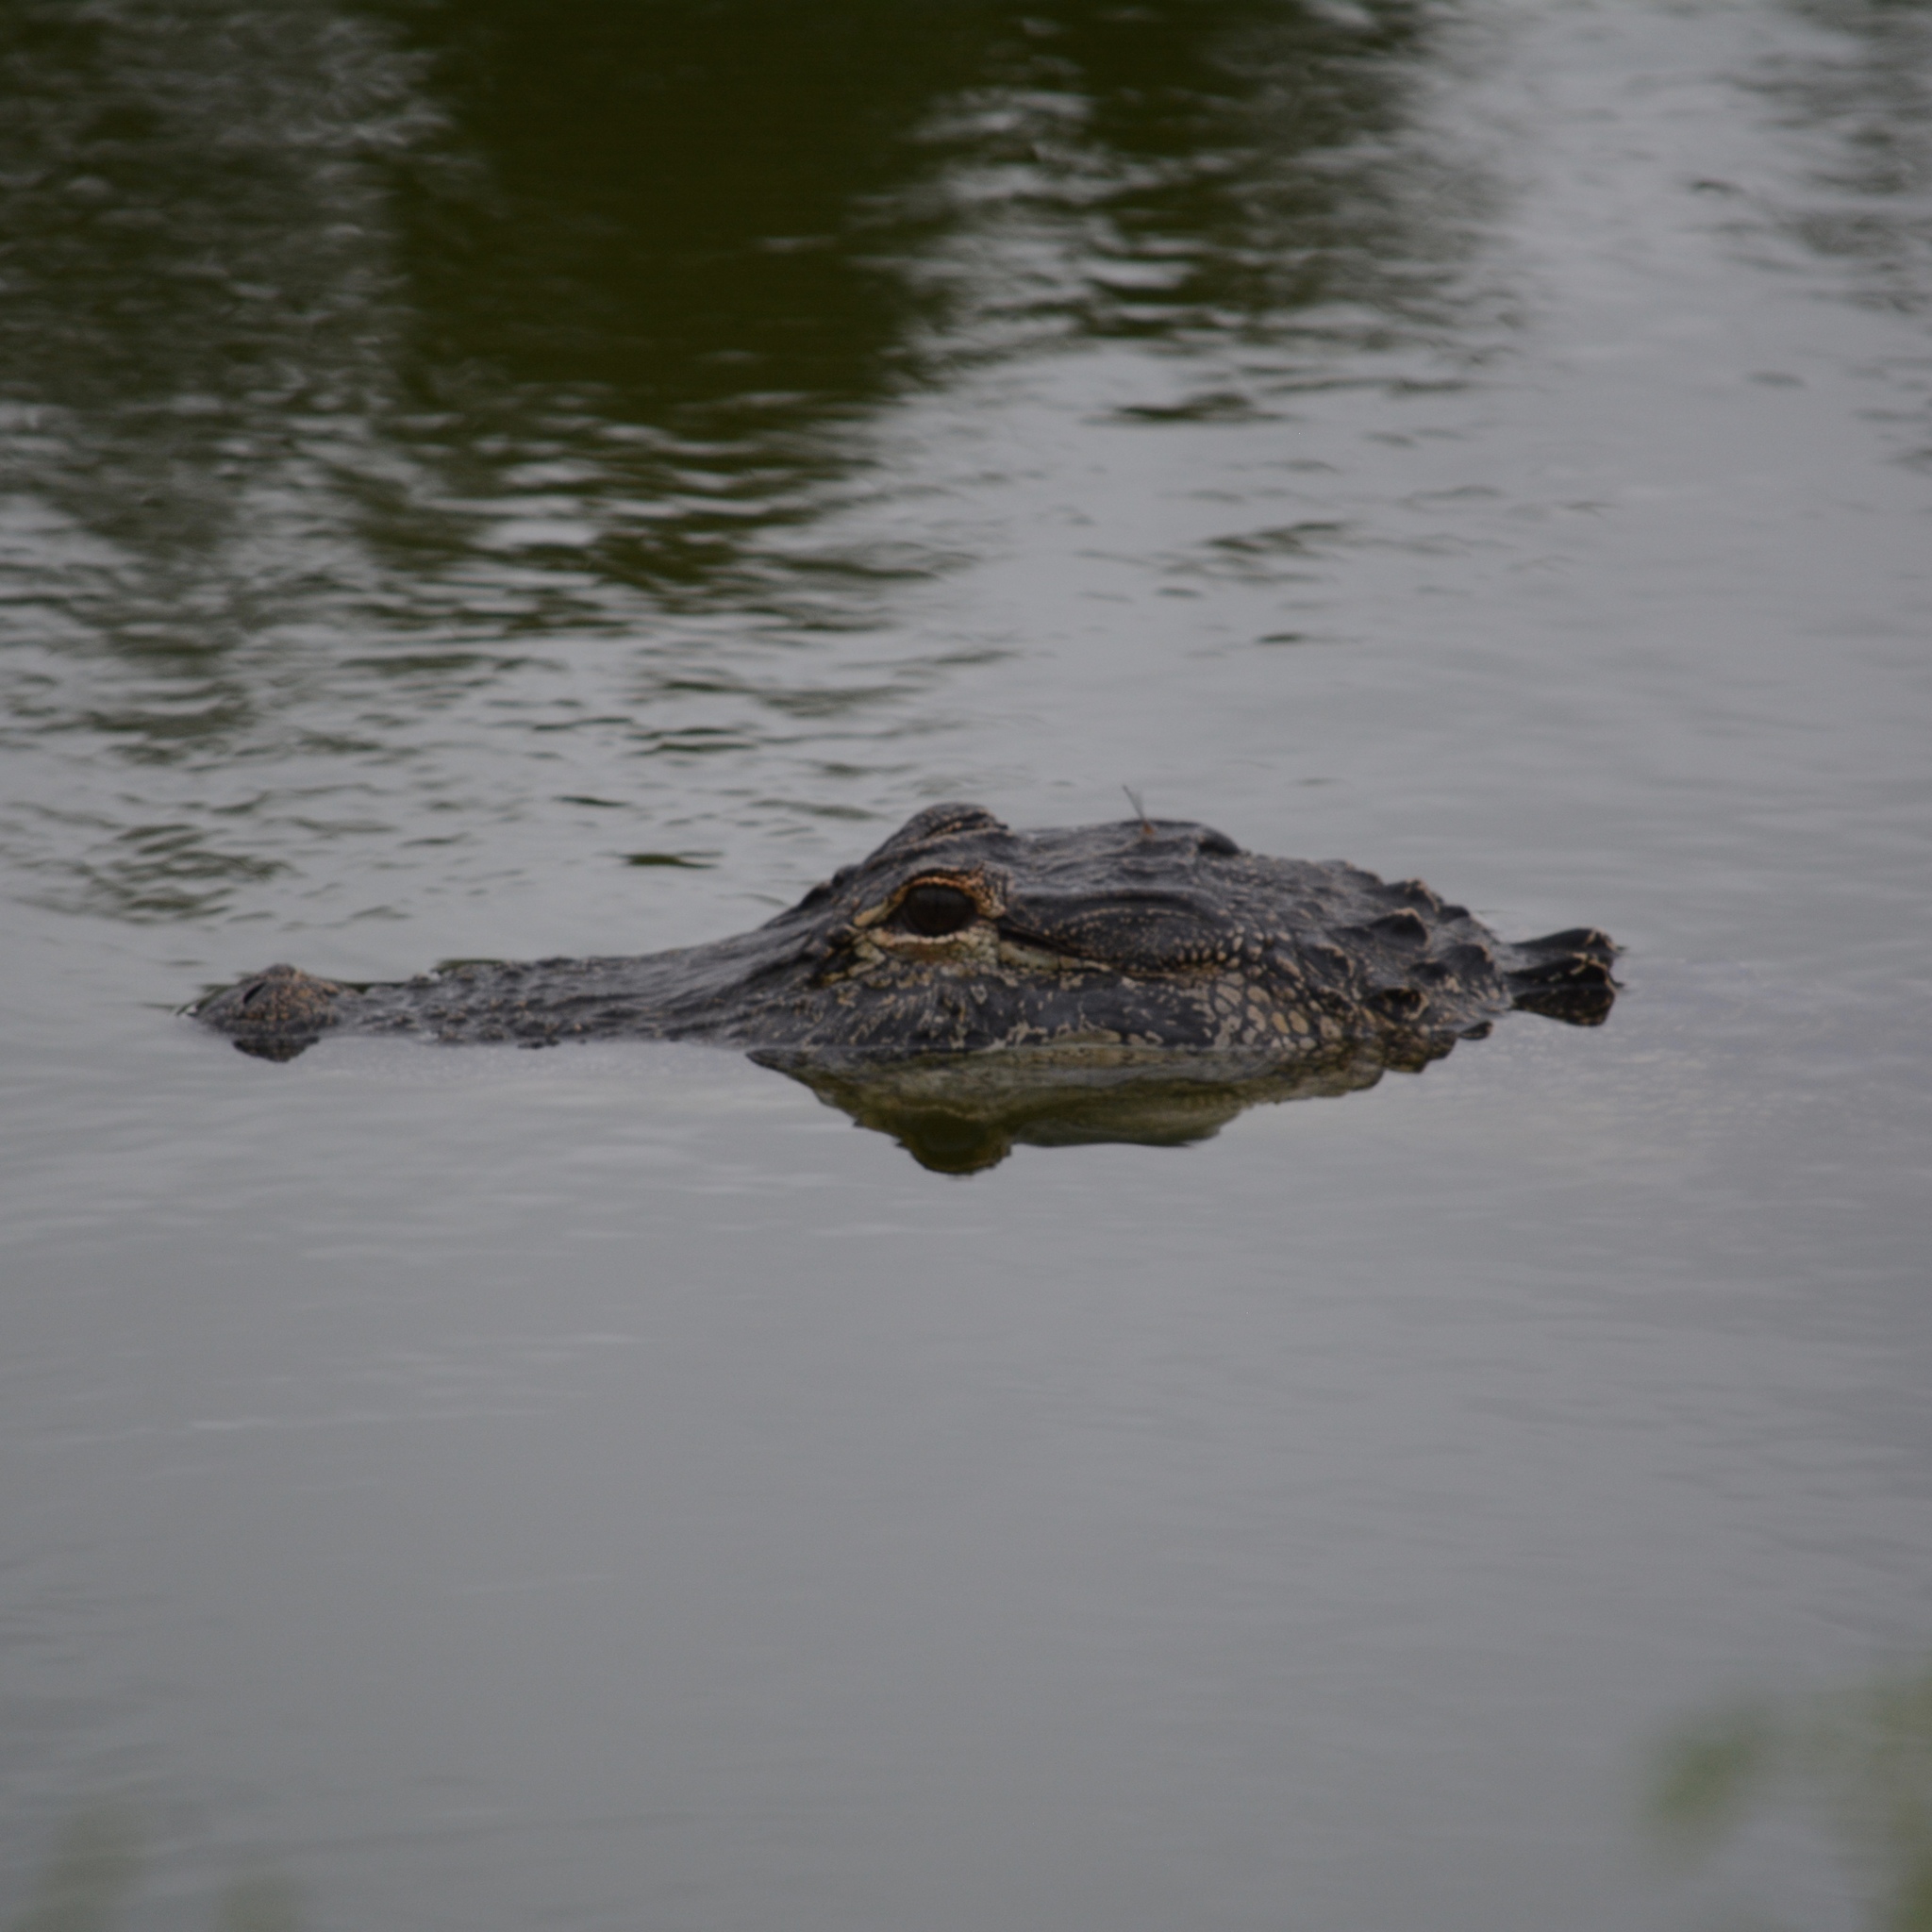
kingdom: Animalia
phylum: Chordata
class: Crocodylia
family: Alligatoridae
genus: Alligator
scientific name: Alligator mississippiensis
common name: American alligator
